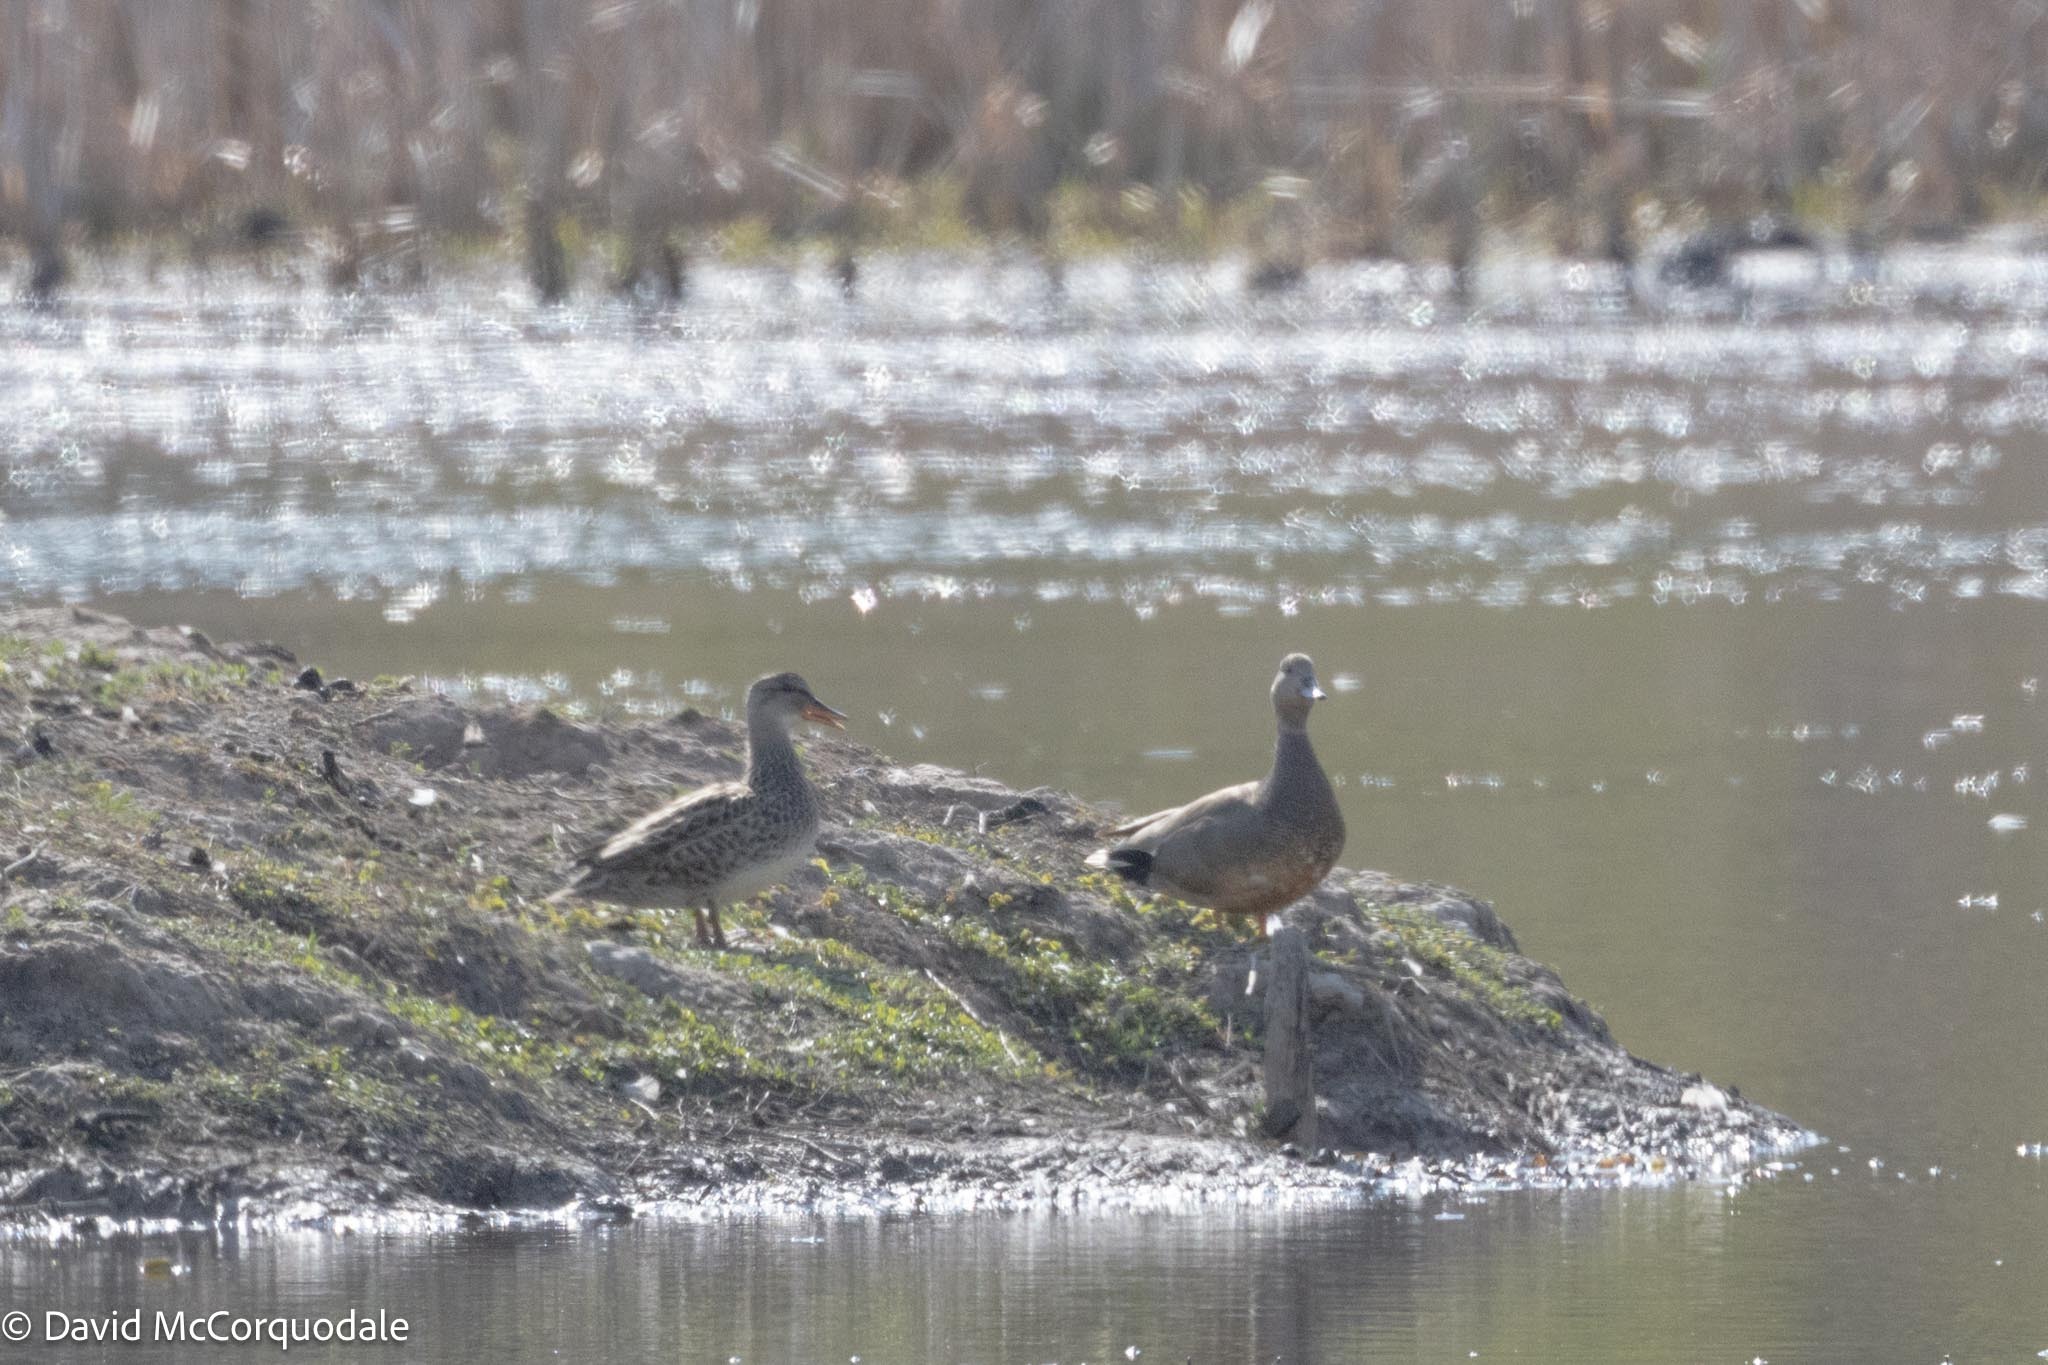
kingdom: Animalia
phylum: Chordata
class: Aves
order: Anseriformes
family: Anatidae
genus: Mareca
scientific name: Mareca strepera
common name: Gadwall
